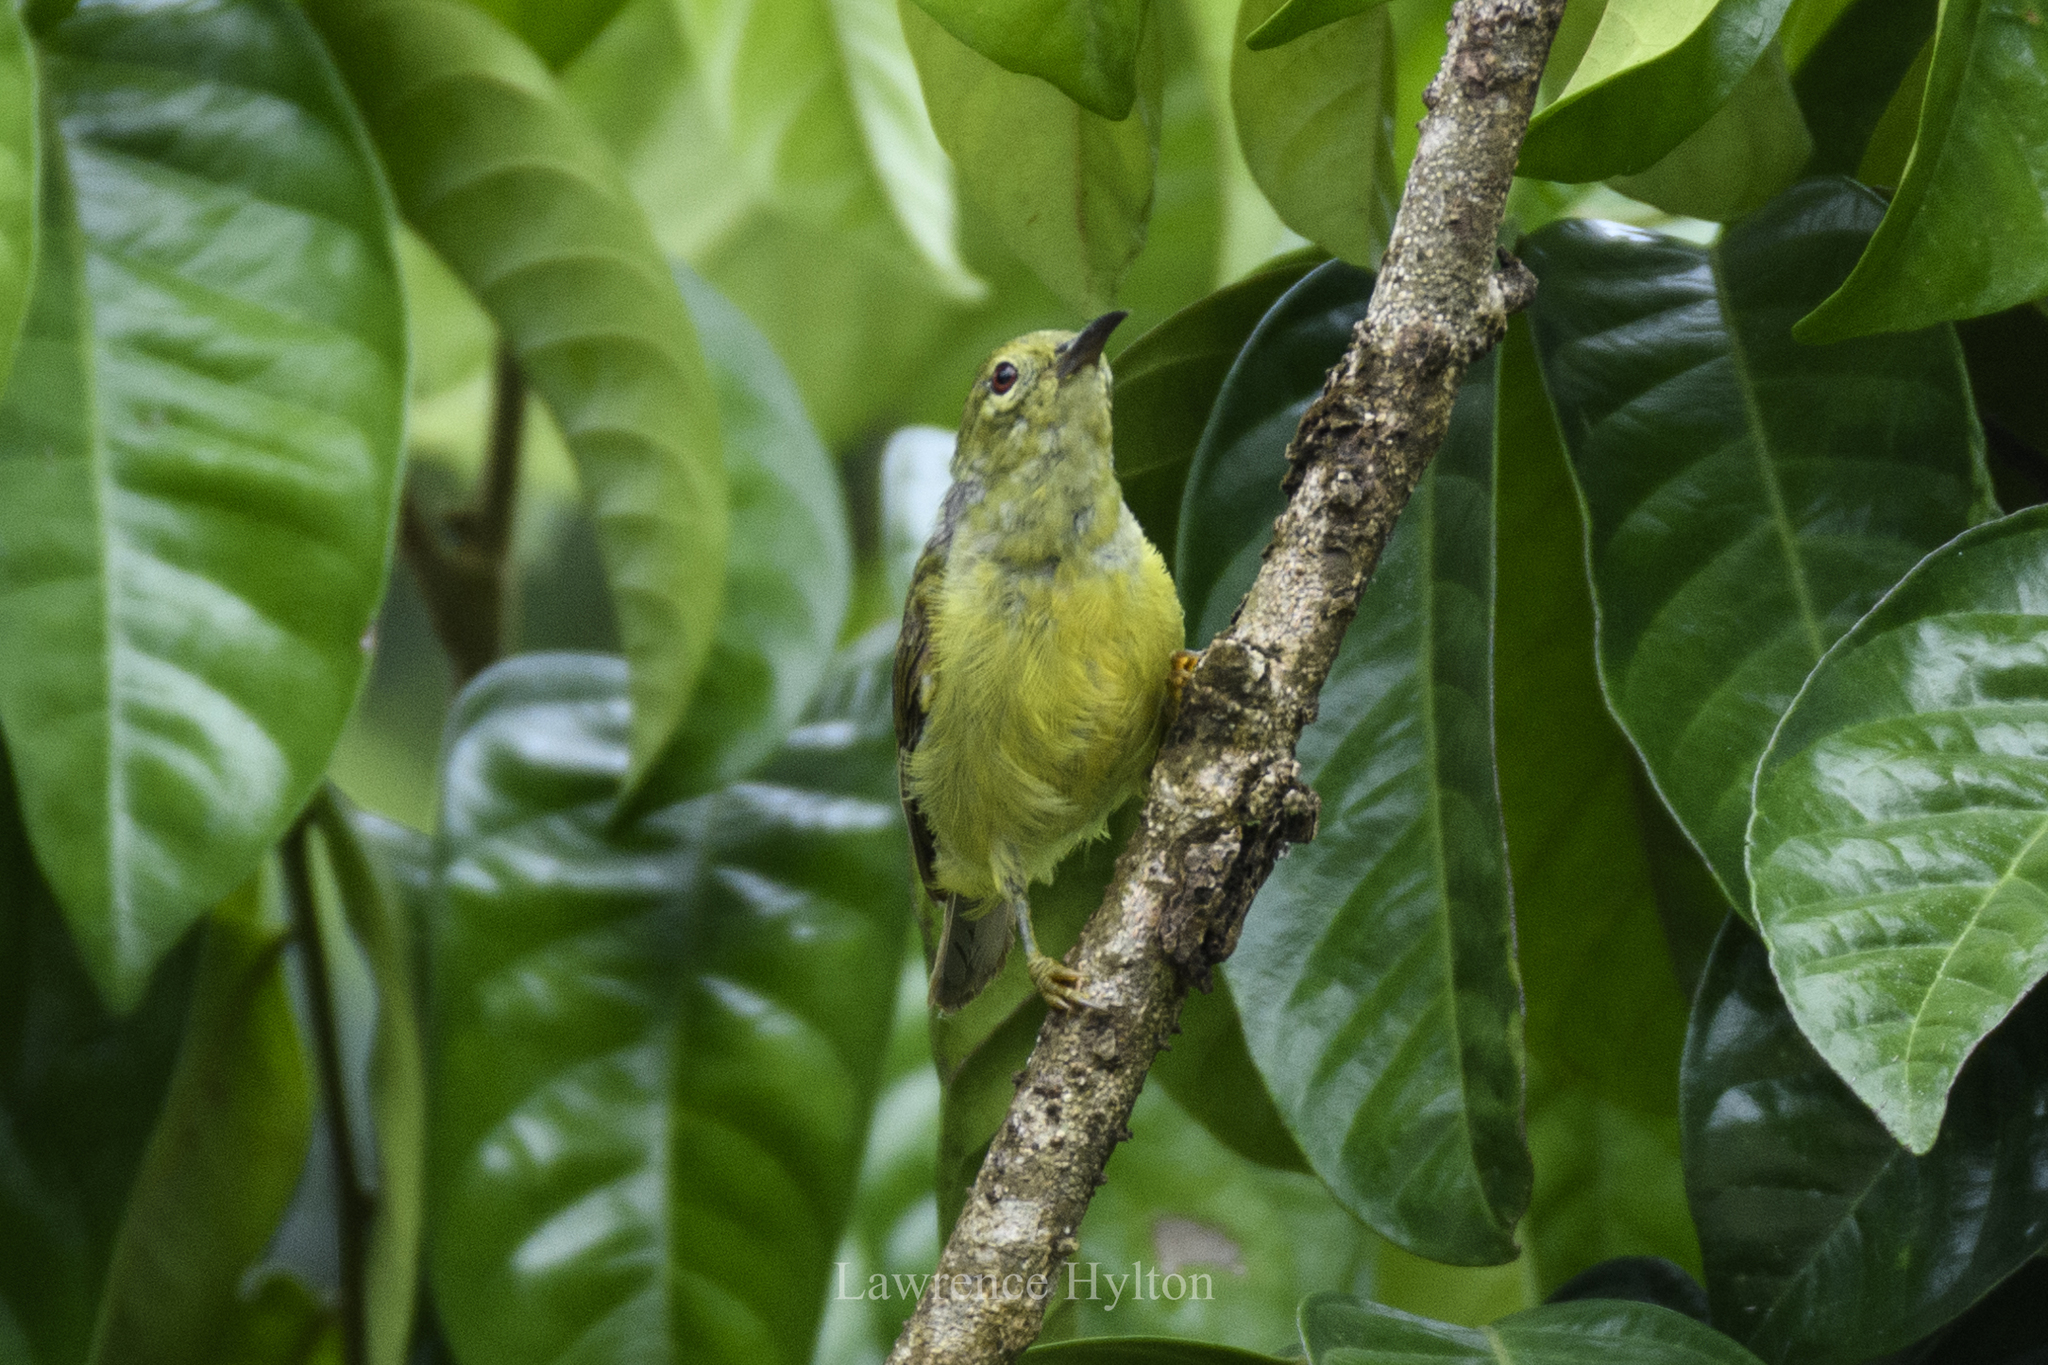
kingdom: Animalia
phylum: Chordata
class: Aves
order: Passeriformes
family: Nectariniidae
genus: Anthreptes
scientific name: Anthreptes malacensis
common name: Brown-throated sunbird
